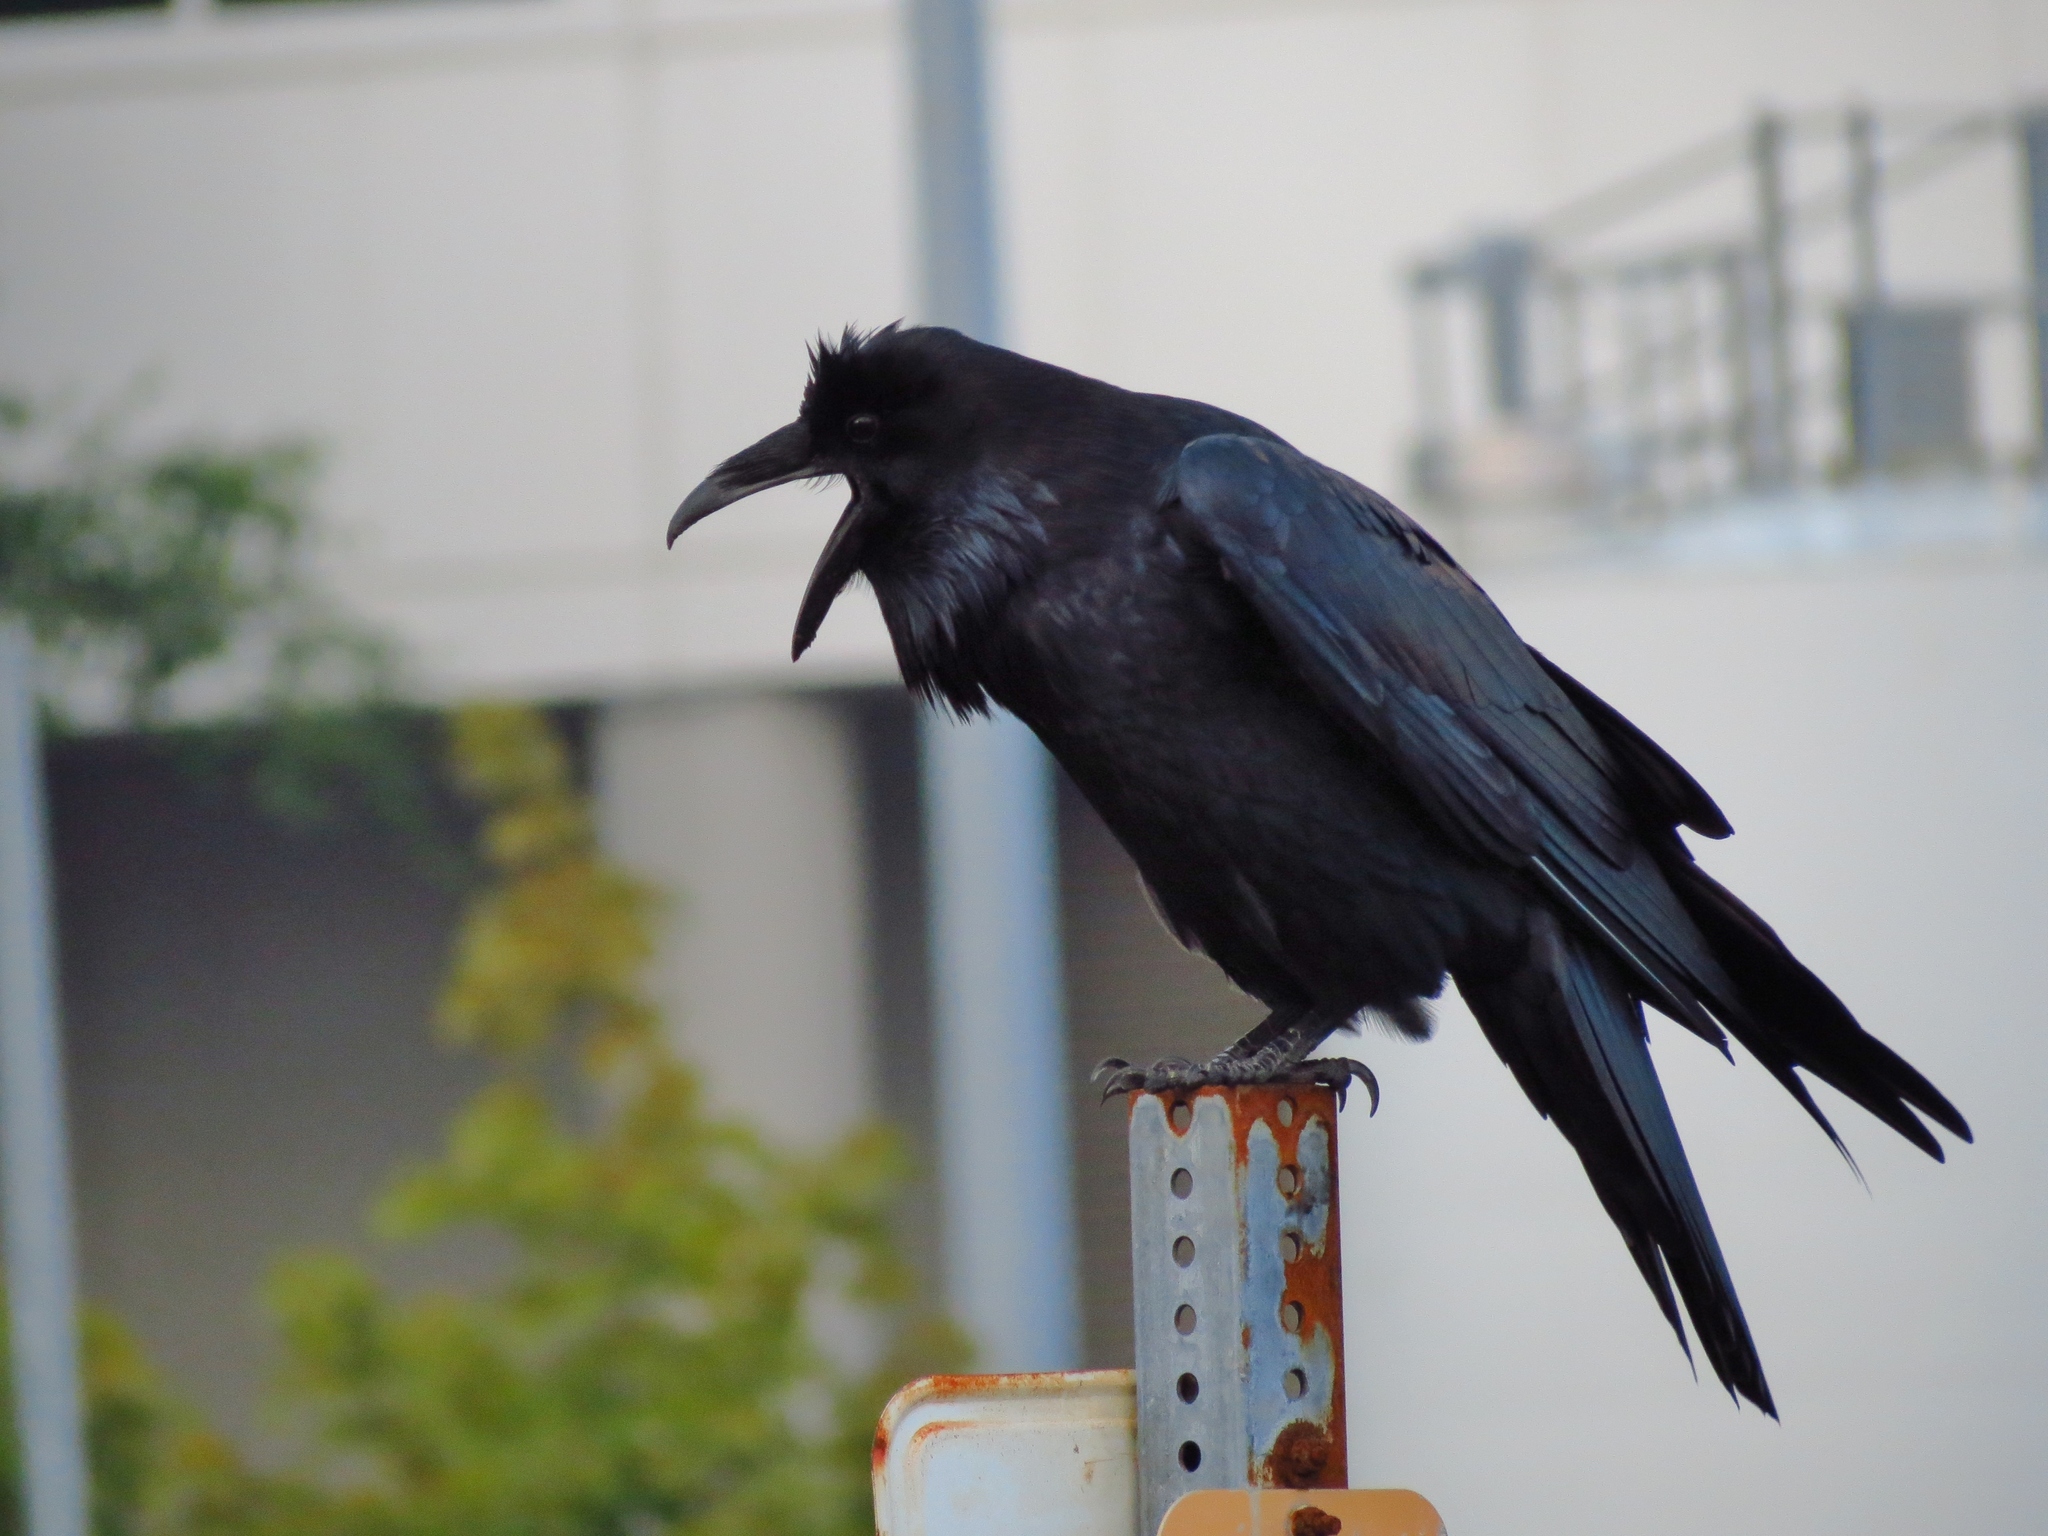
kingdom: Animalia
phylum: Chordata
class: Aves
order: Passeriformes
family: Corvidae
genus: Corvus
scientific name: Corvus corax
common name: Common raven
